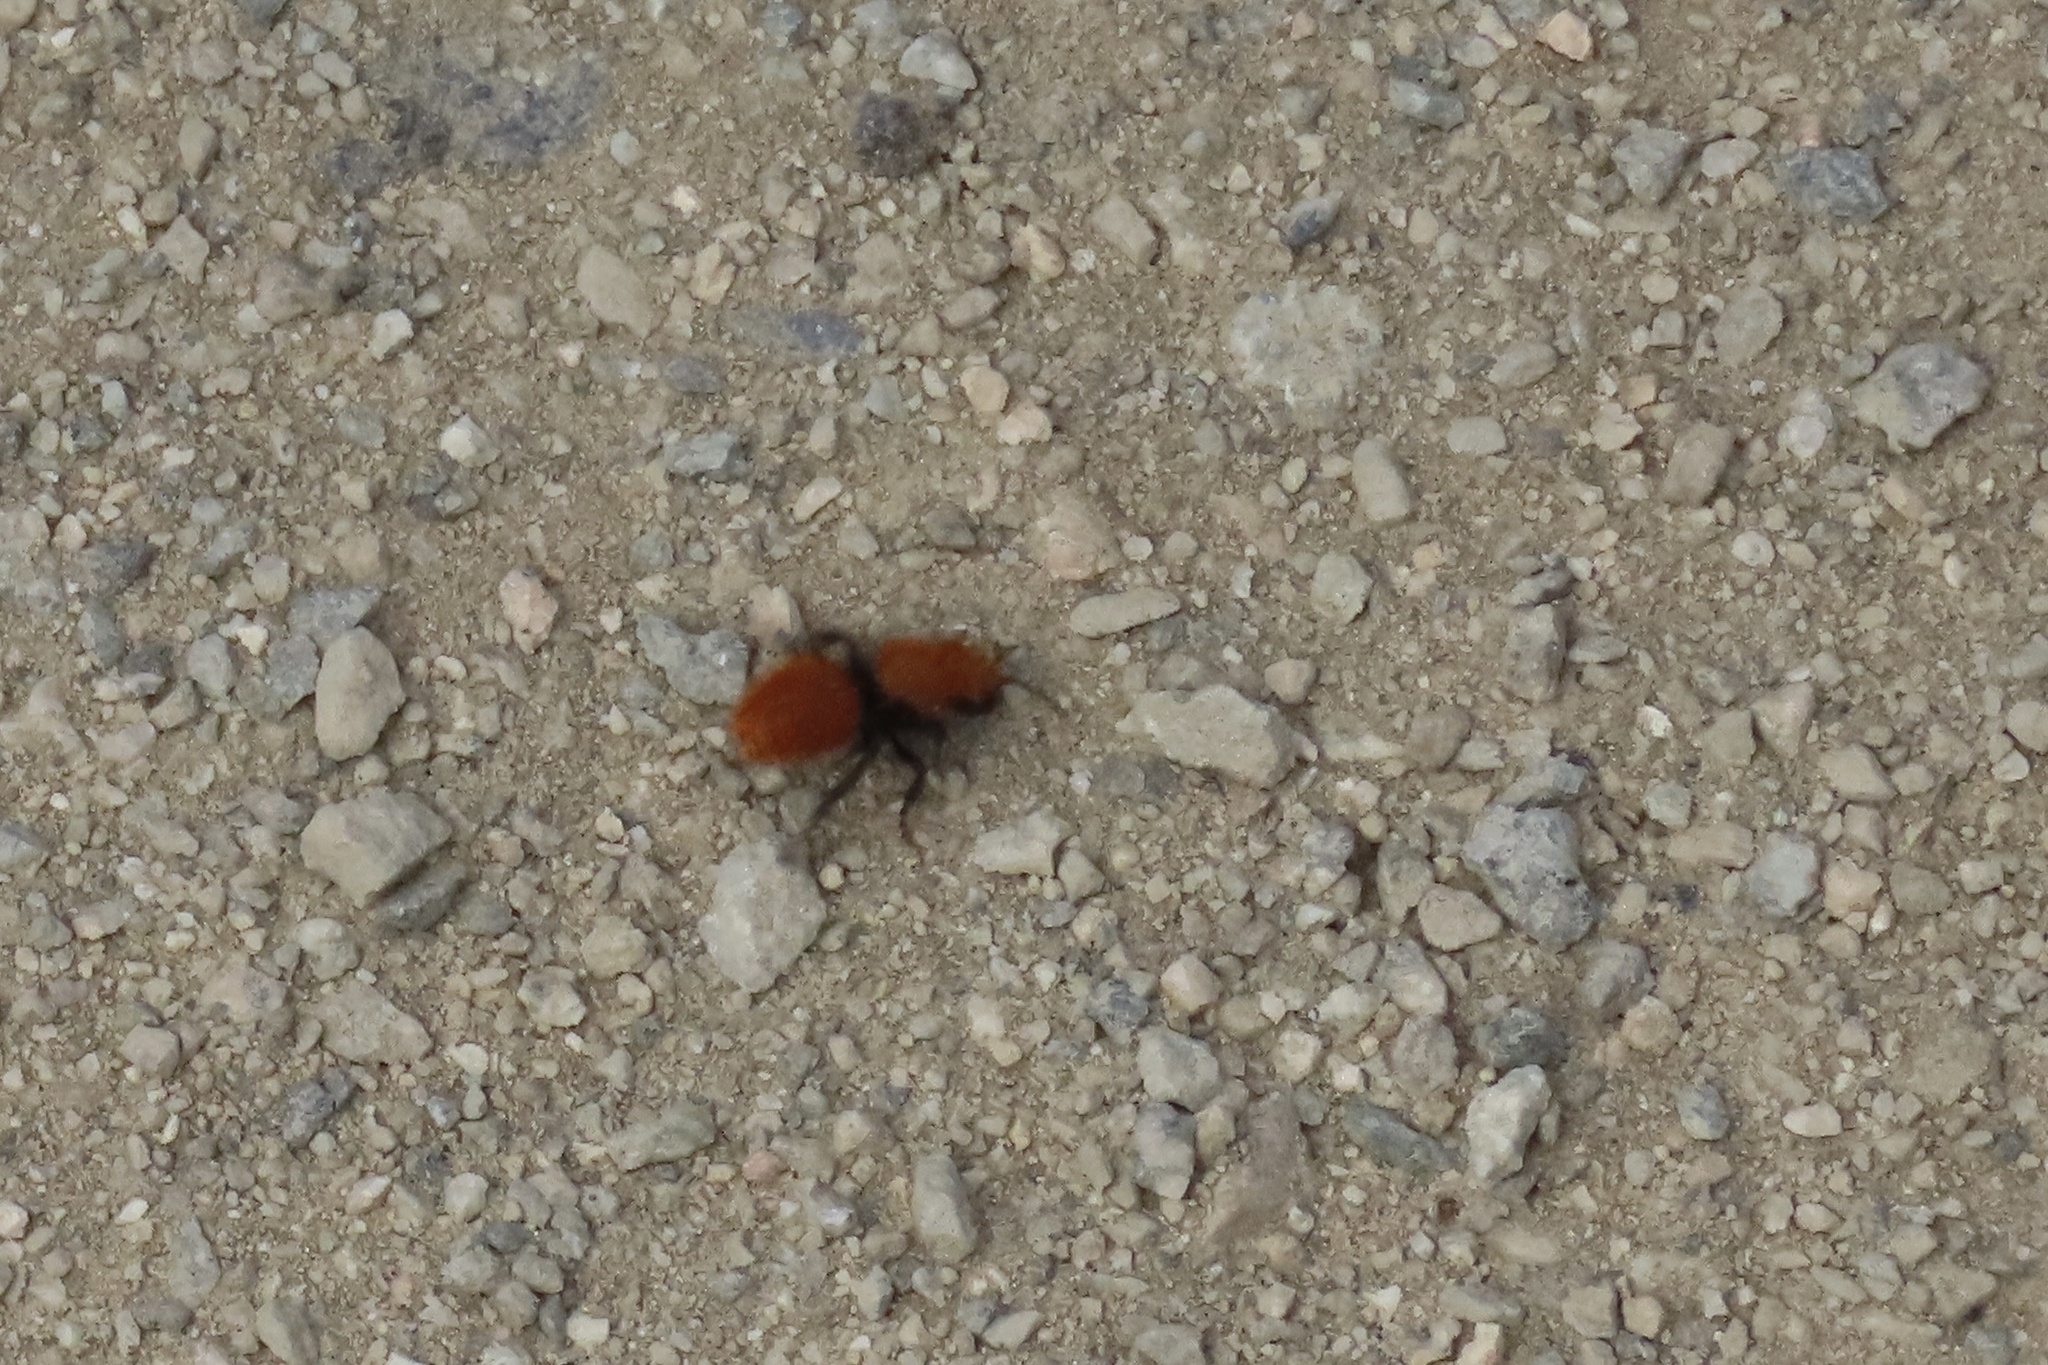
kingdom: Animalia
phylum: Arthropoda
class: Insecta
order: Hymenoptera
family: Mutillidae
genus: Dasymutilla
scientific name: Dasymutilla
